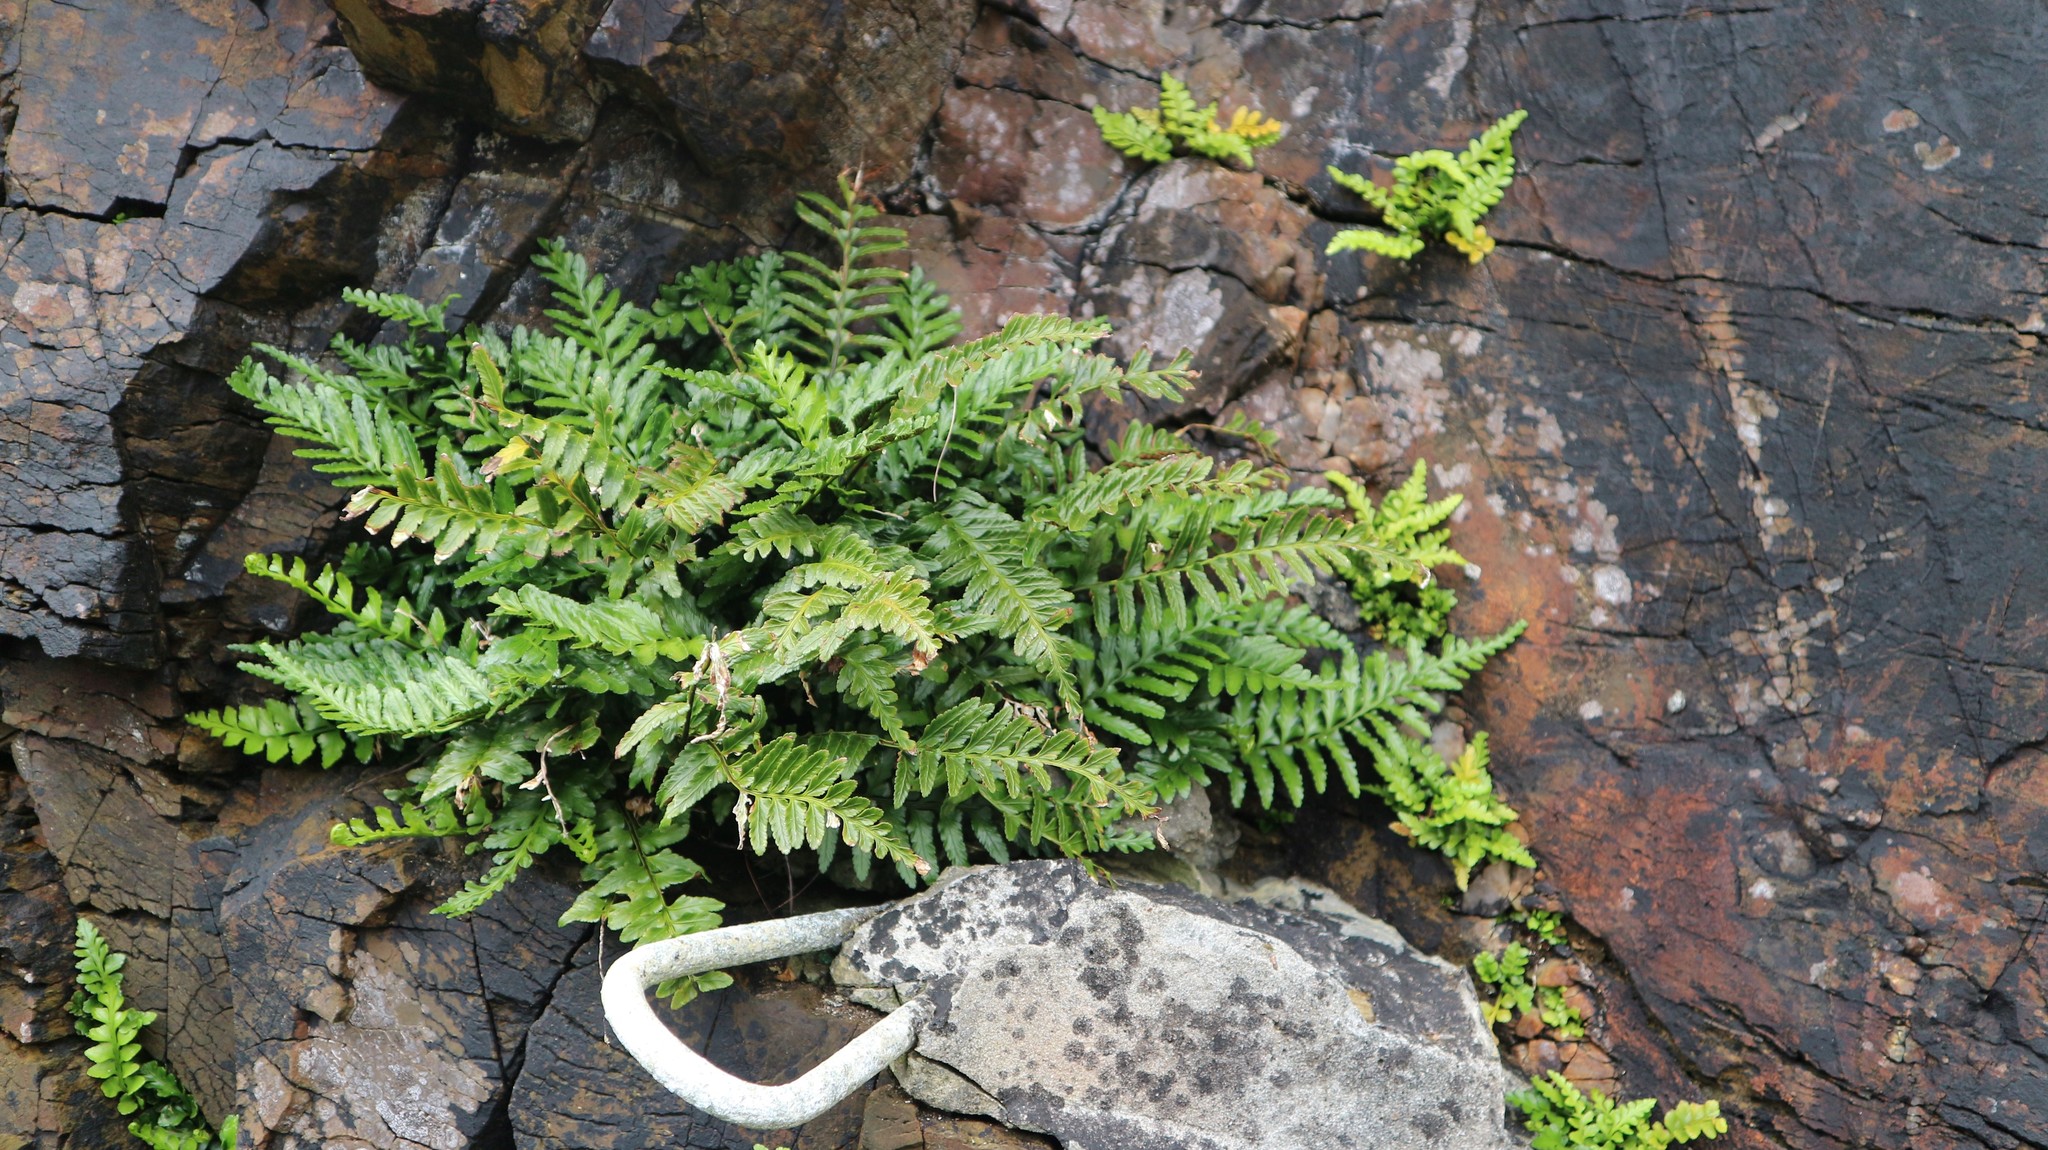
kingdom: Plantae
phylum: Tracheophyta
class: Polypodiopsida
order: Polypodiales
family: Aspleniaceae
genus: Asplenium
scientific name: Asplenium marinum
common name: Sea spleenwort
